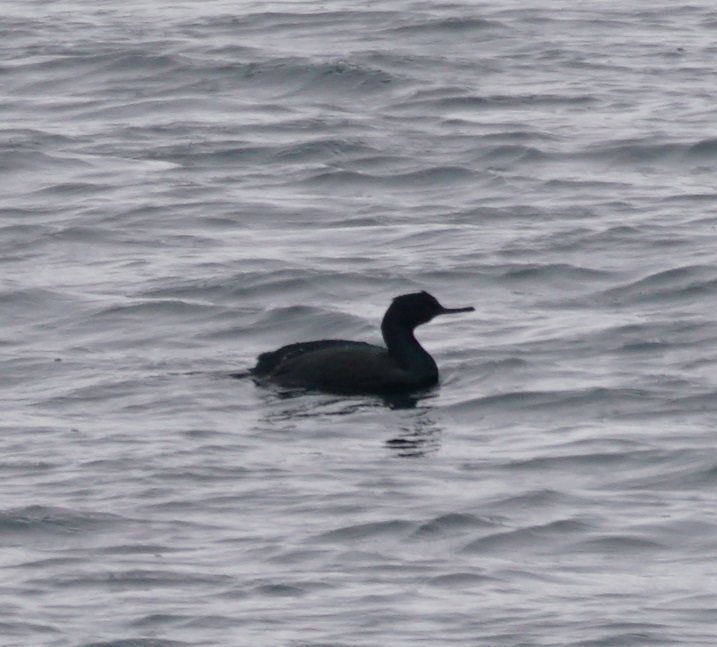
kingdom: Animalia
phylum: Chordata
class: Aves
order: Suliformes
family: Phalacrocoracidae
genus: Phalacrocorax
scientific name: Phalacrocorax pelagicus
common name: Pelagic cormorant
